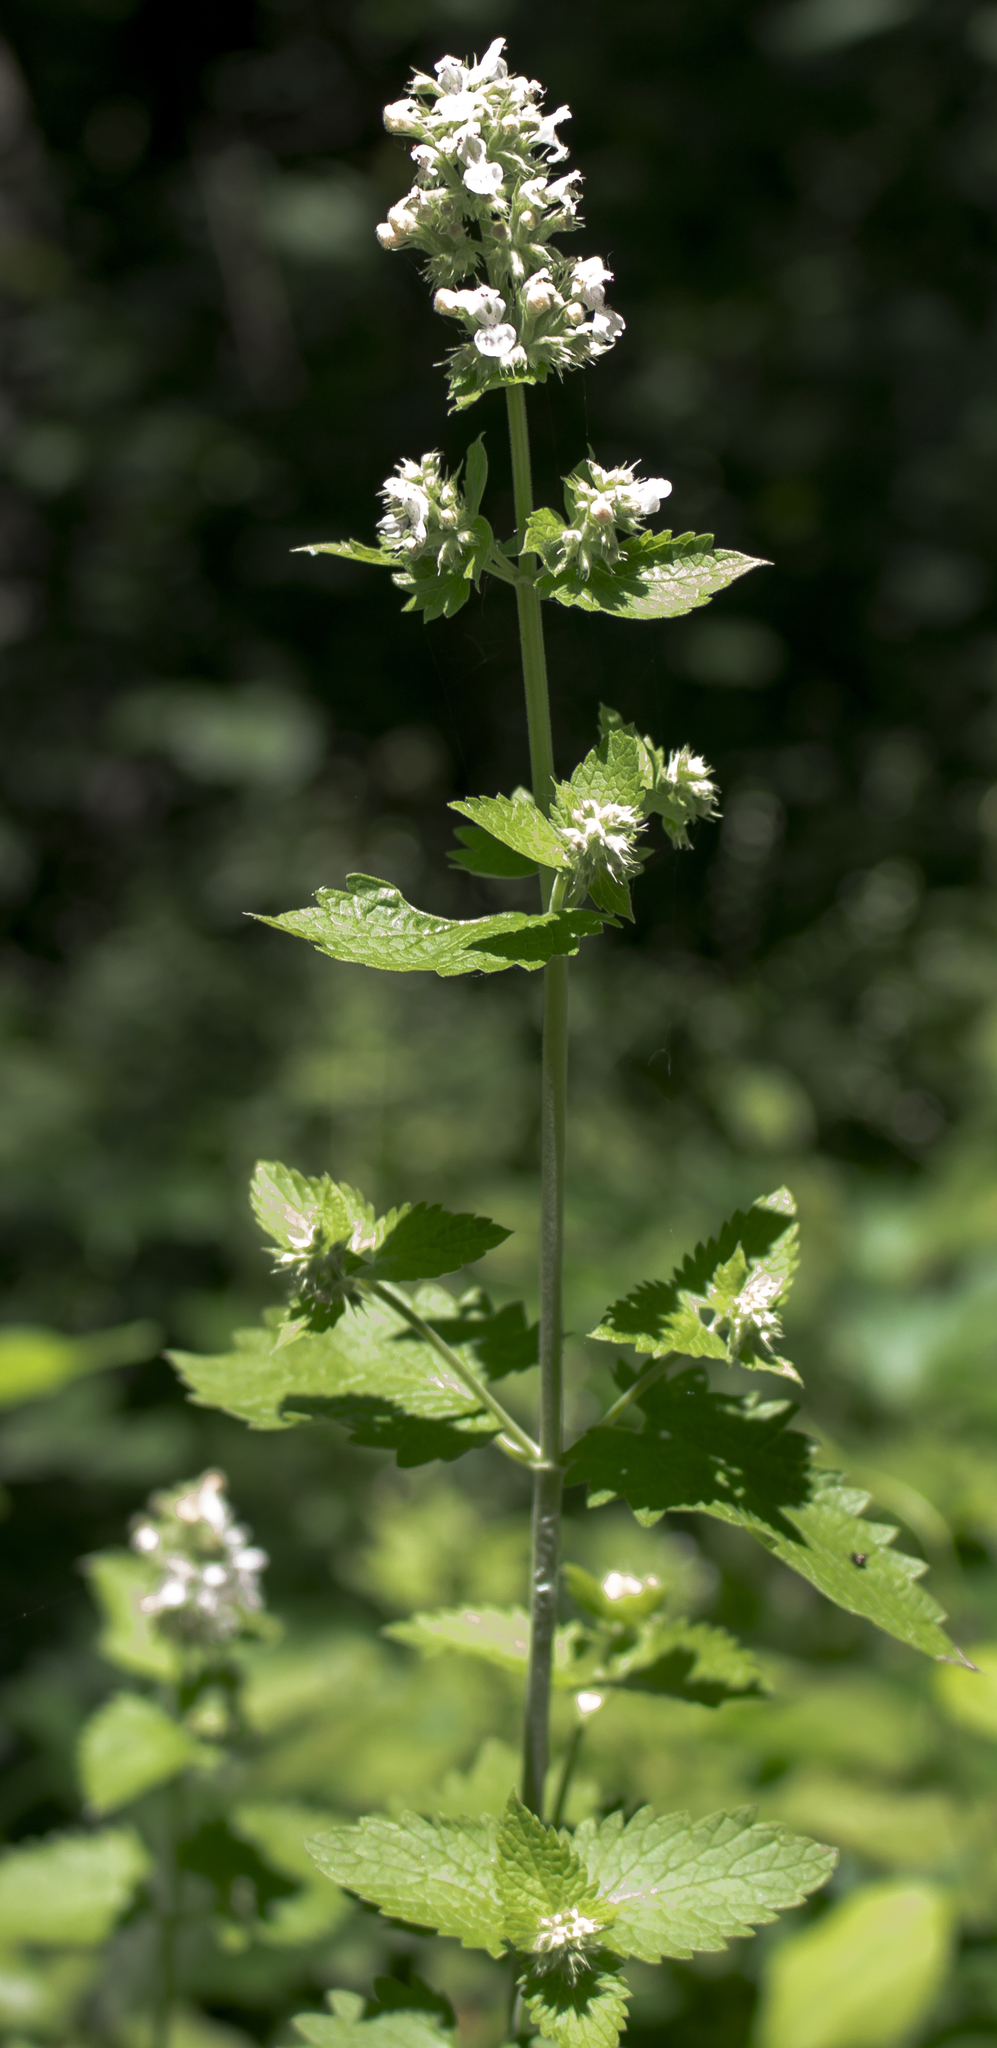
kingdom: Plantae
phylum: Tracheophyta
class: Magnoliopsida
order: Lamiales
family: Lamiaceae
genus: Nepeta
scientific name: Nepeta cataria
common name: Catnip
